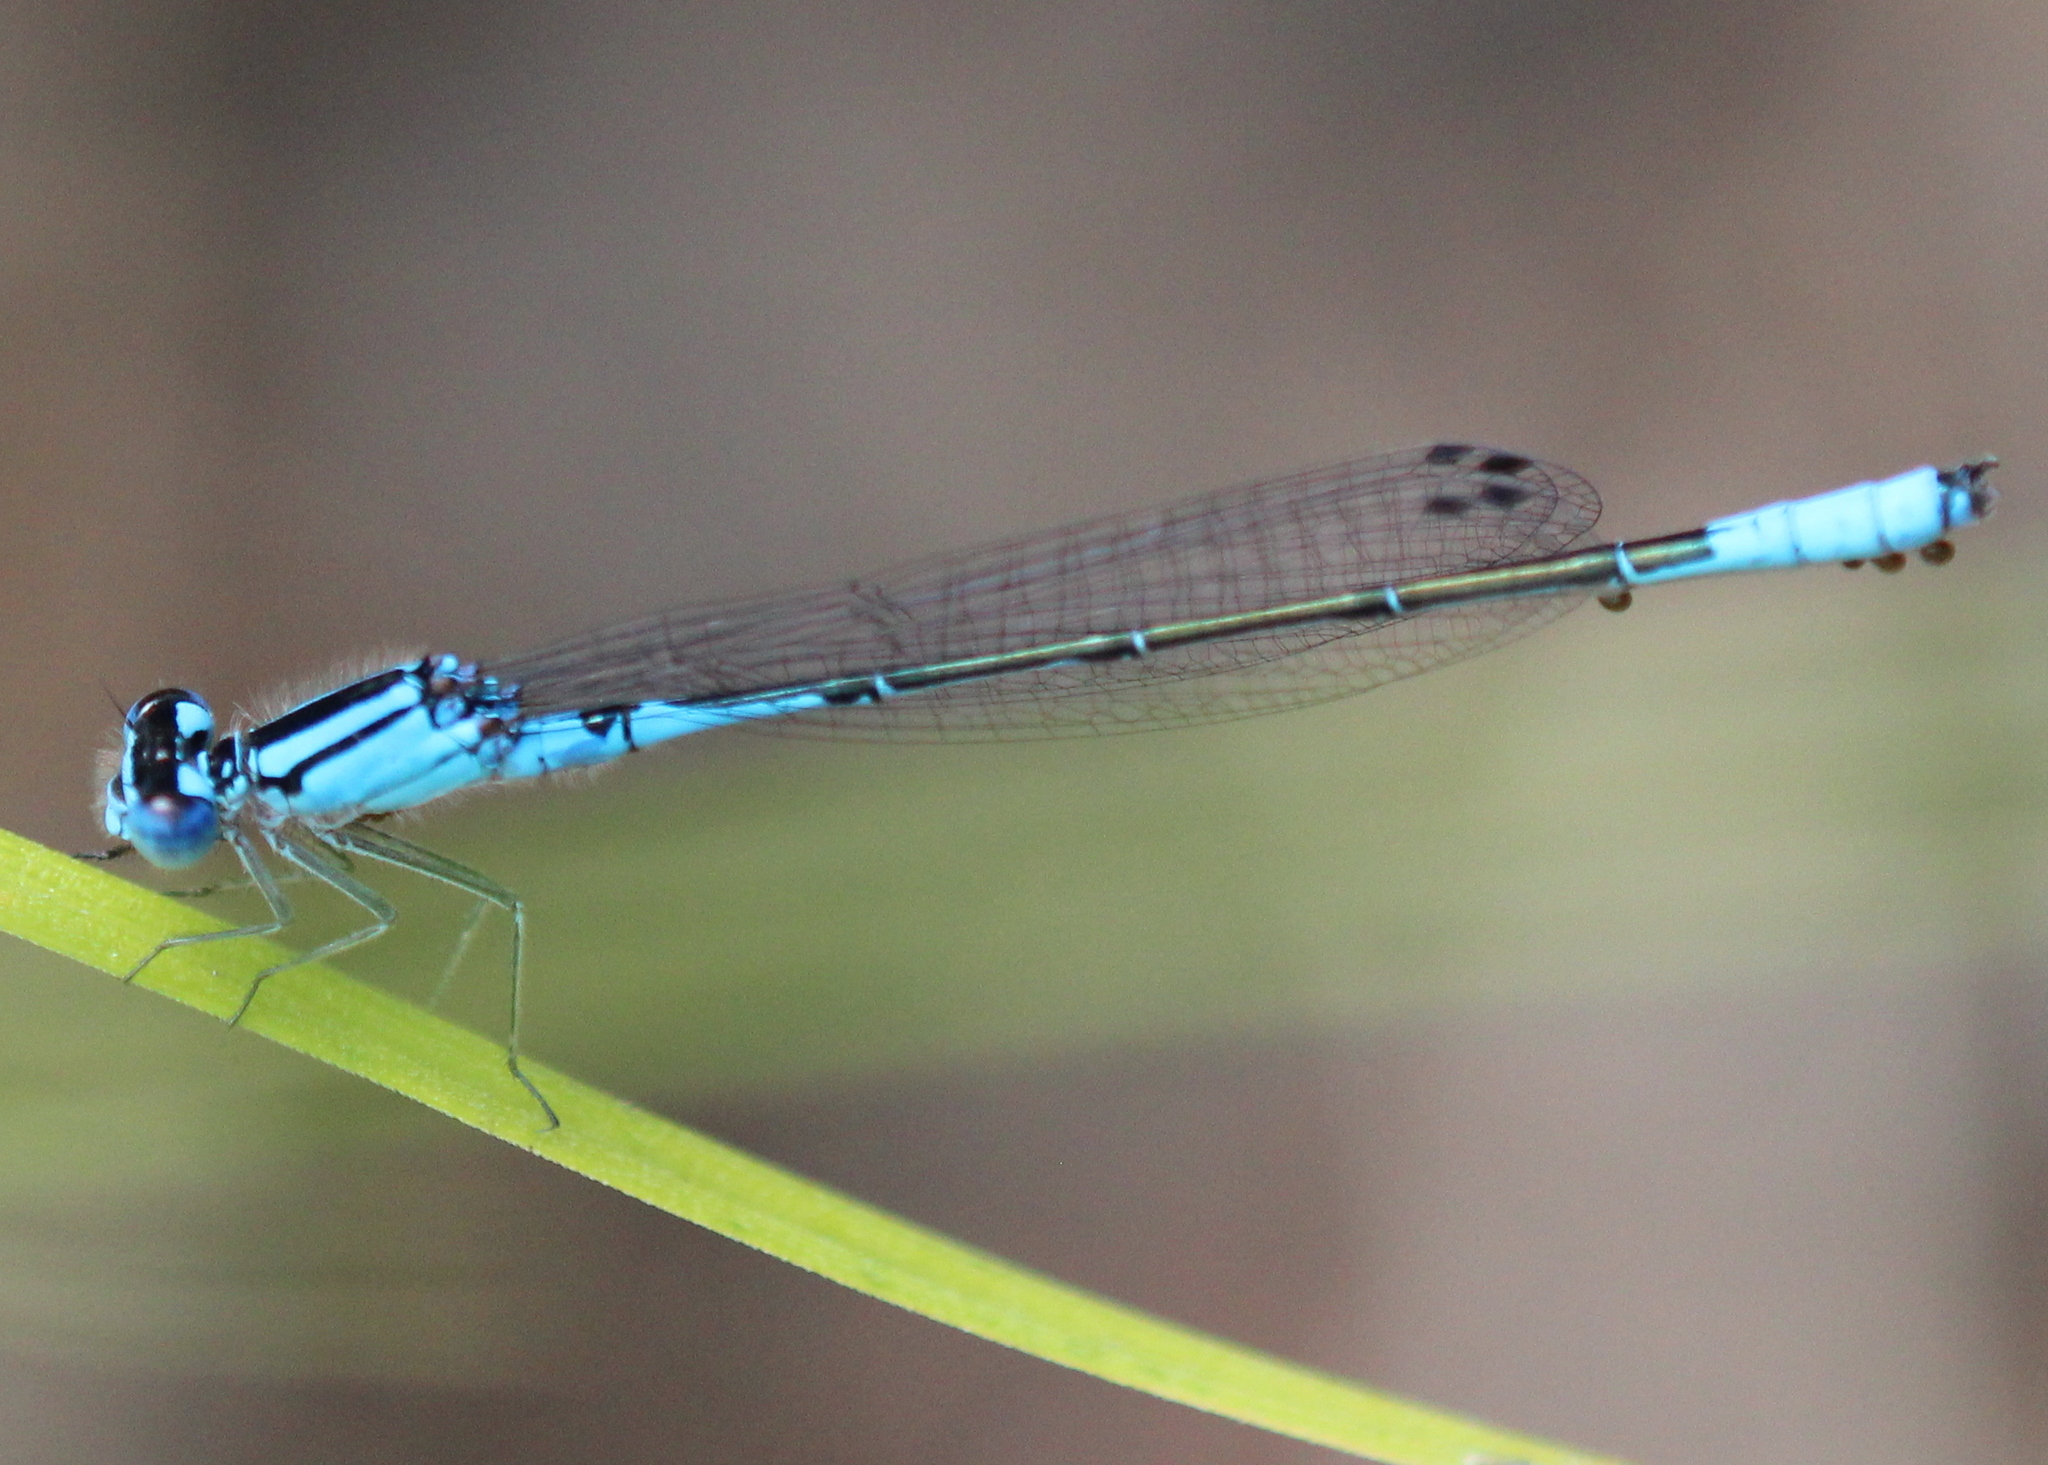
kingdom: Animalia
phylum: Arthropoda
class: Insecta
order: Odonata
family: Coenagrionidae
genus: Enallagma
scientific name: Enallagma aspersum
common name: Azure bluet
